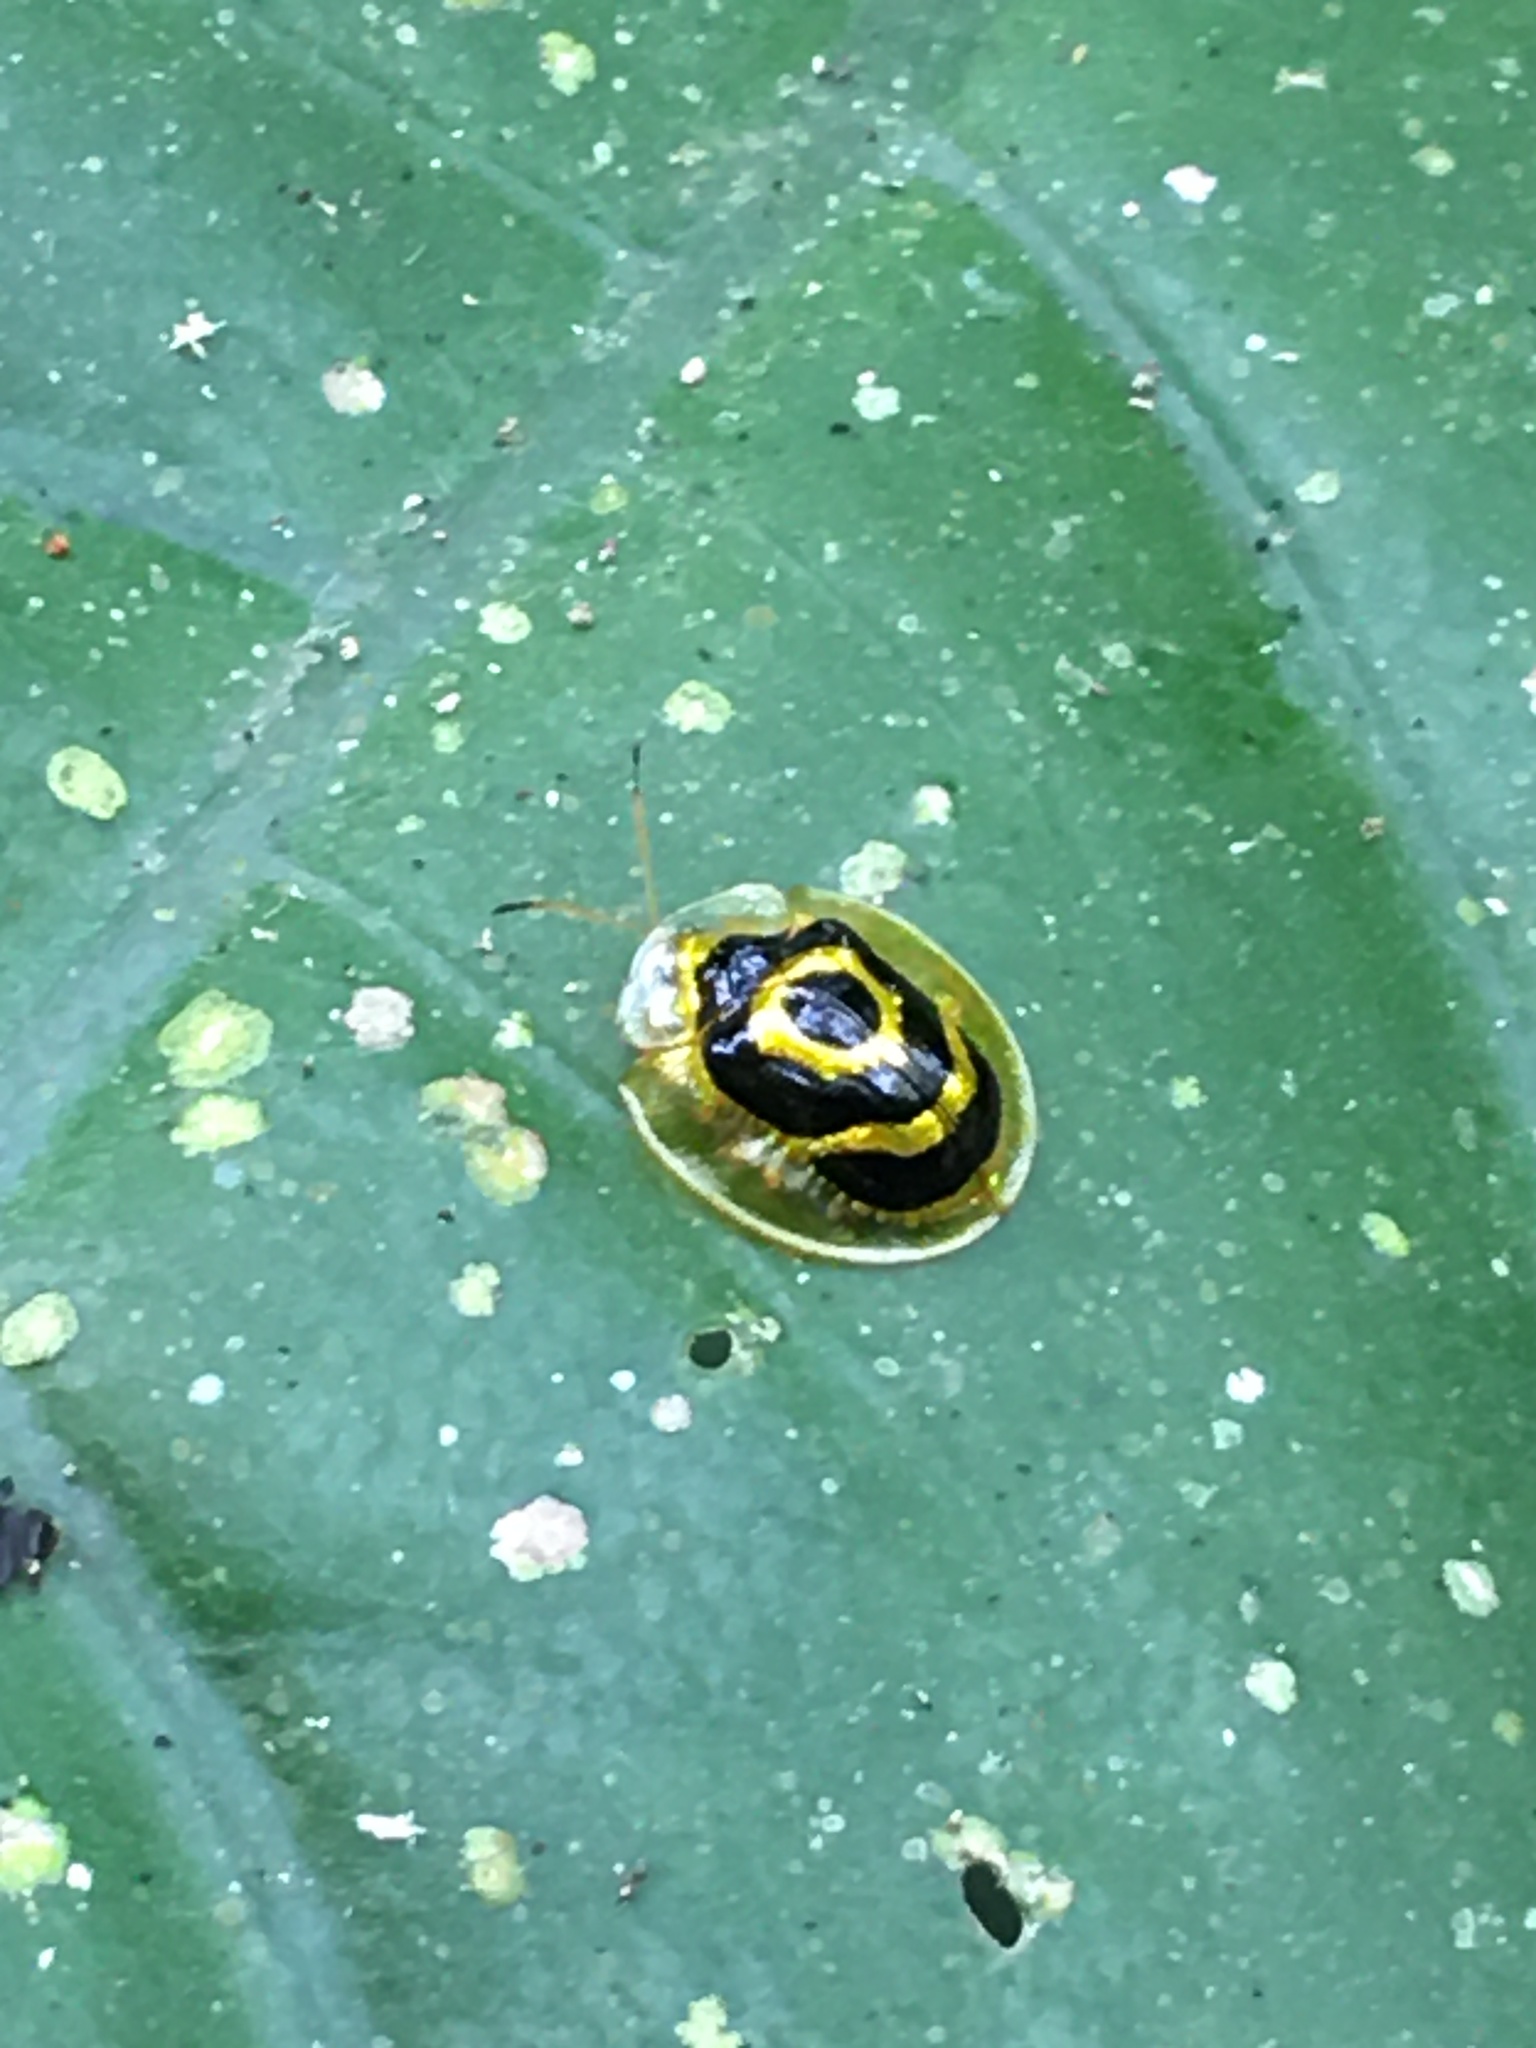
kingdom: Animalia
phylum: Arthropoda
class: Insecta
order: Coleoptera
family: Chrysomelidae
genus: Ischnocodia
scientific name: Ischnocodia annulus
